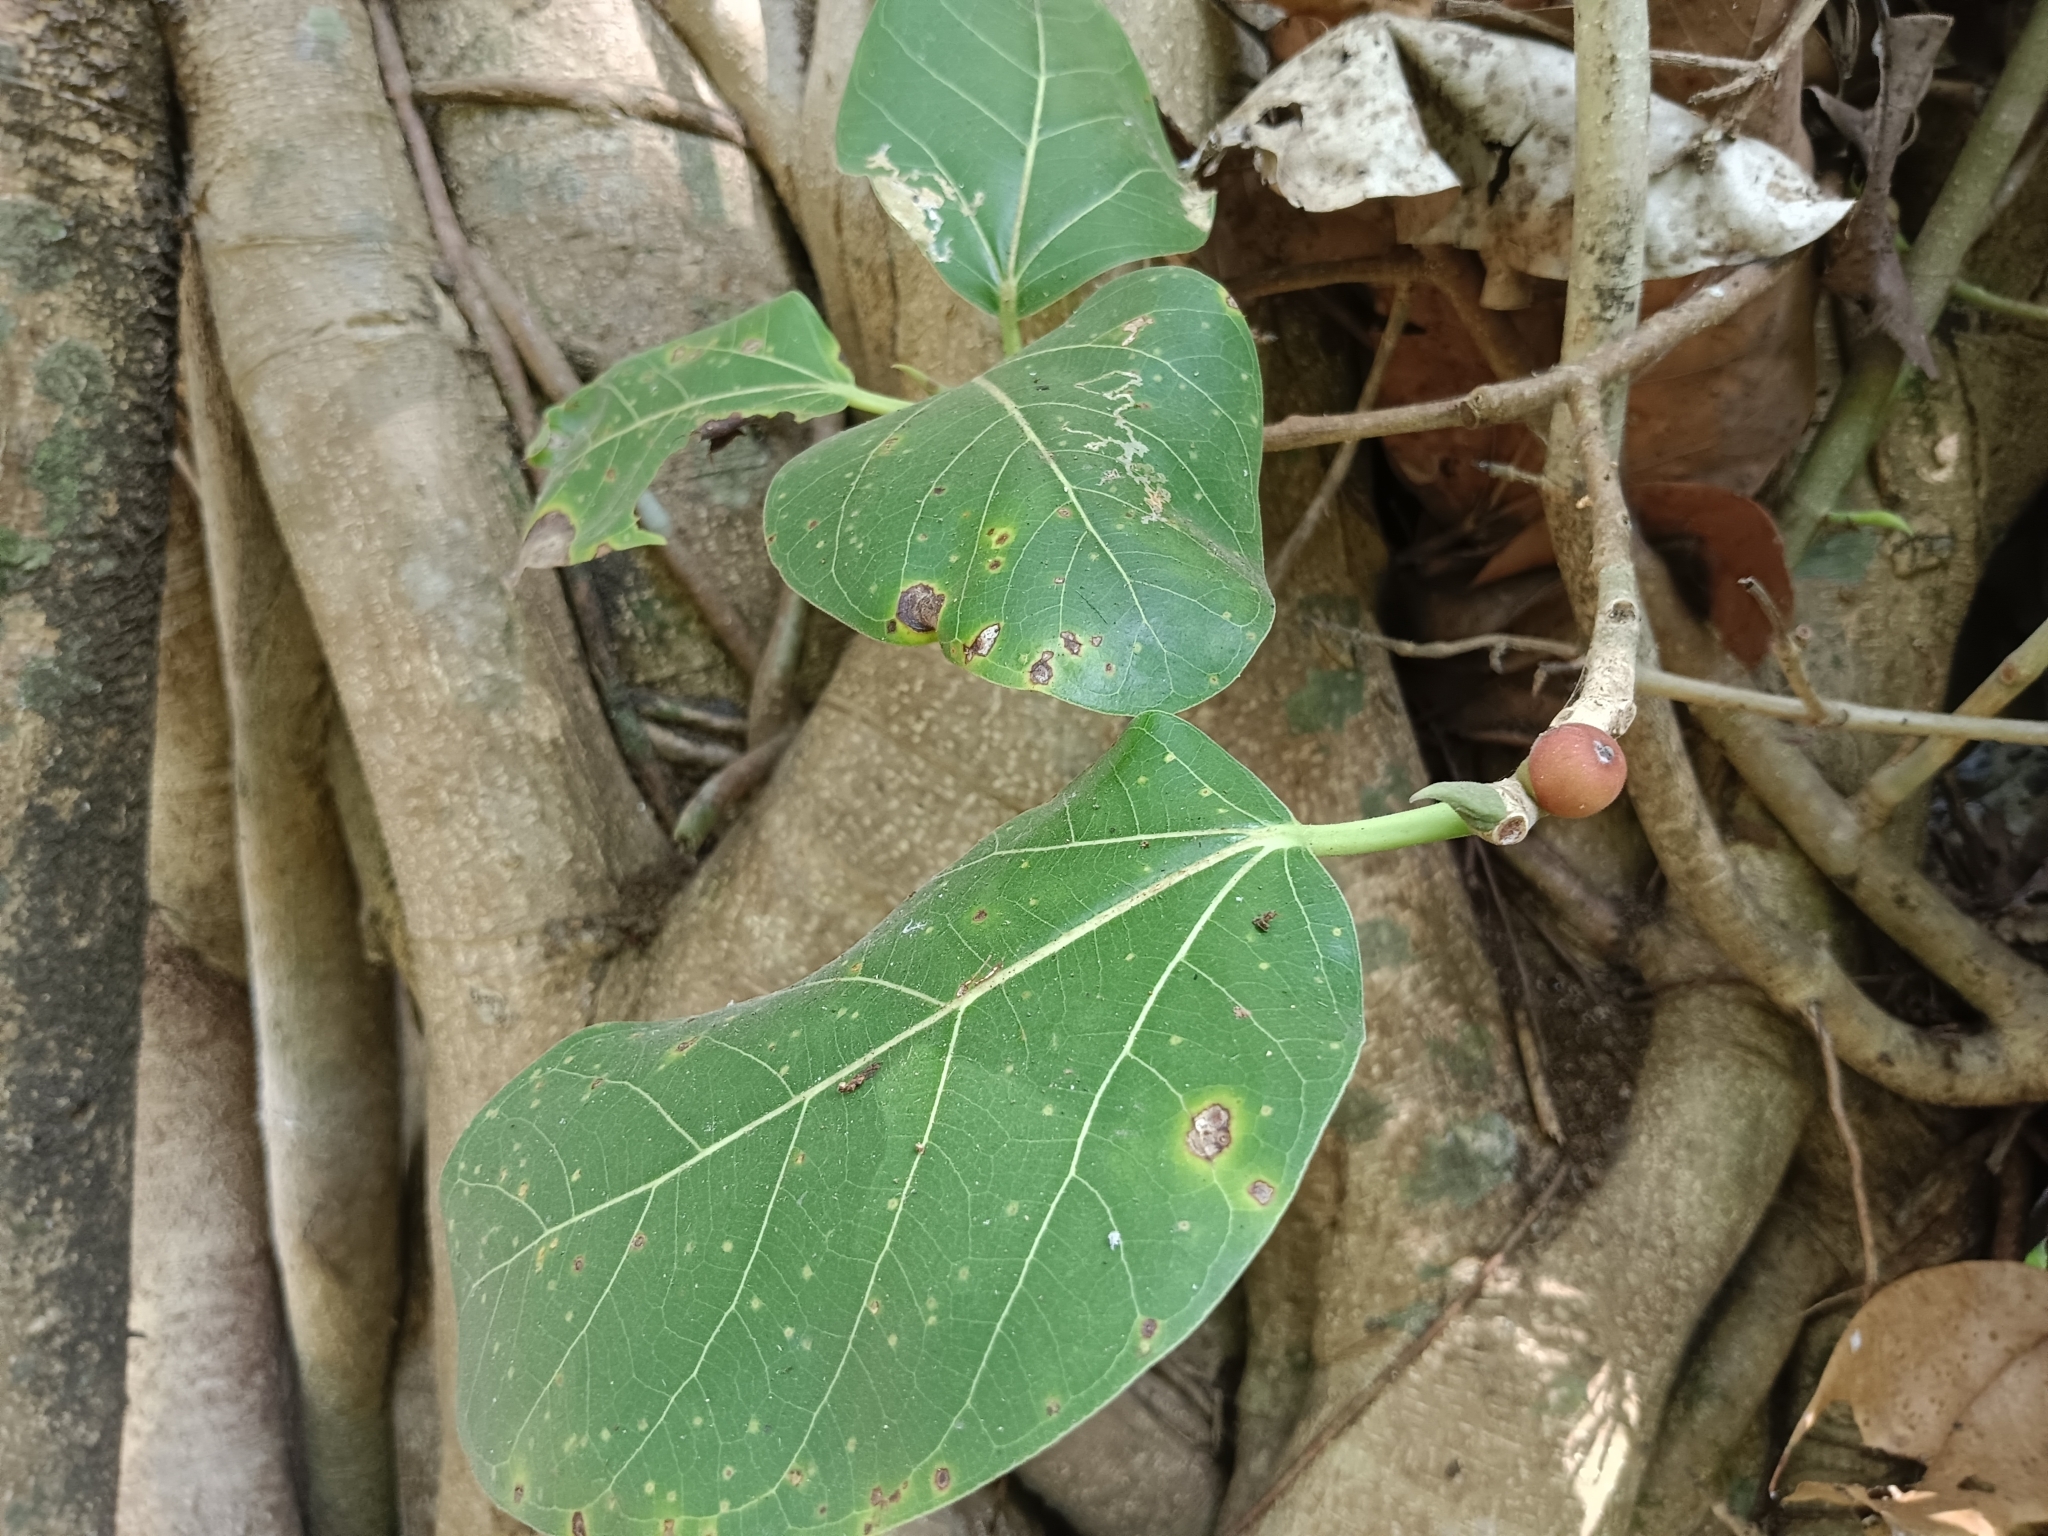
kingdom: Plantae
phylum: Tracheophyta
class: Magnoliopsida
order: Rosales
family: Moraceae
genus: Ficus
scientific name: Ficus benghalensis
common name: Indian banyan
